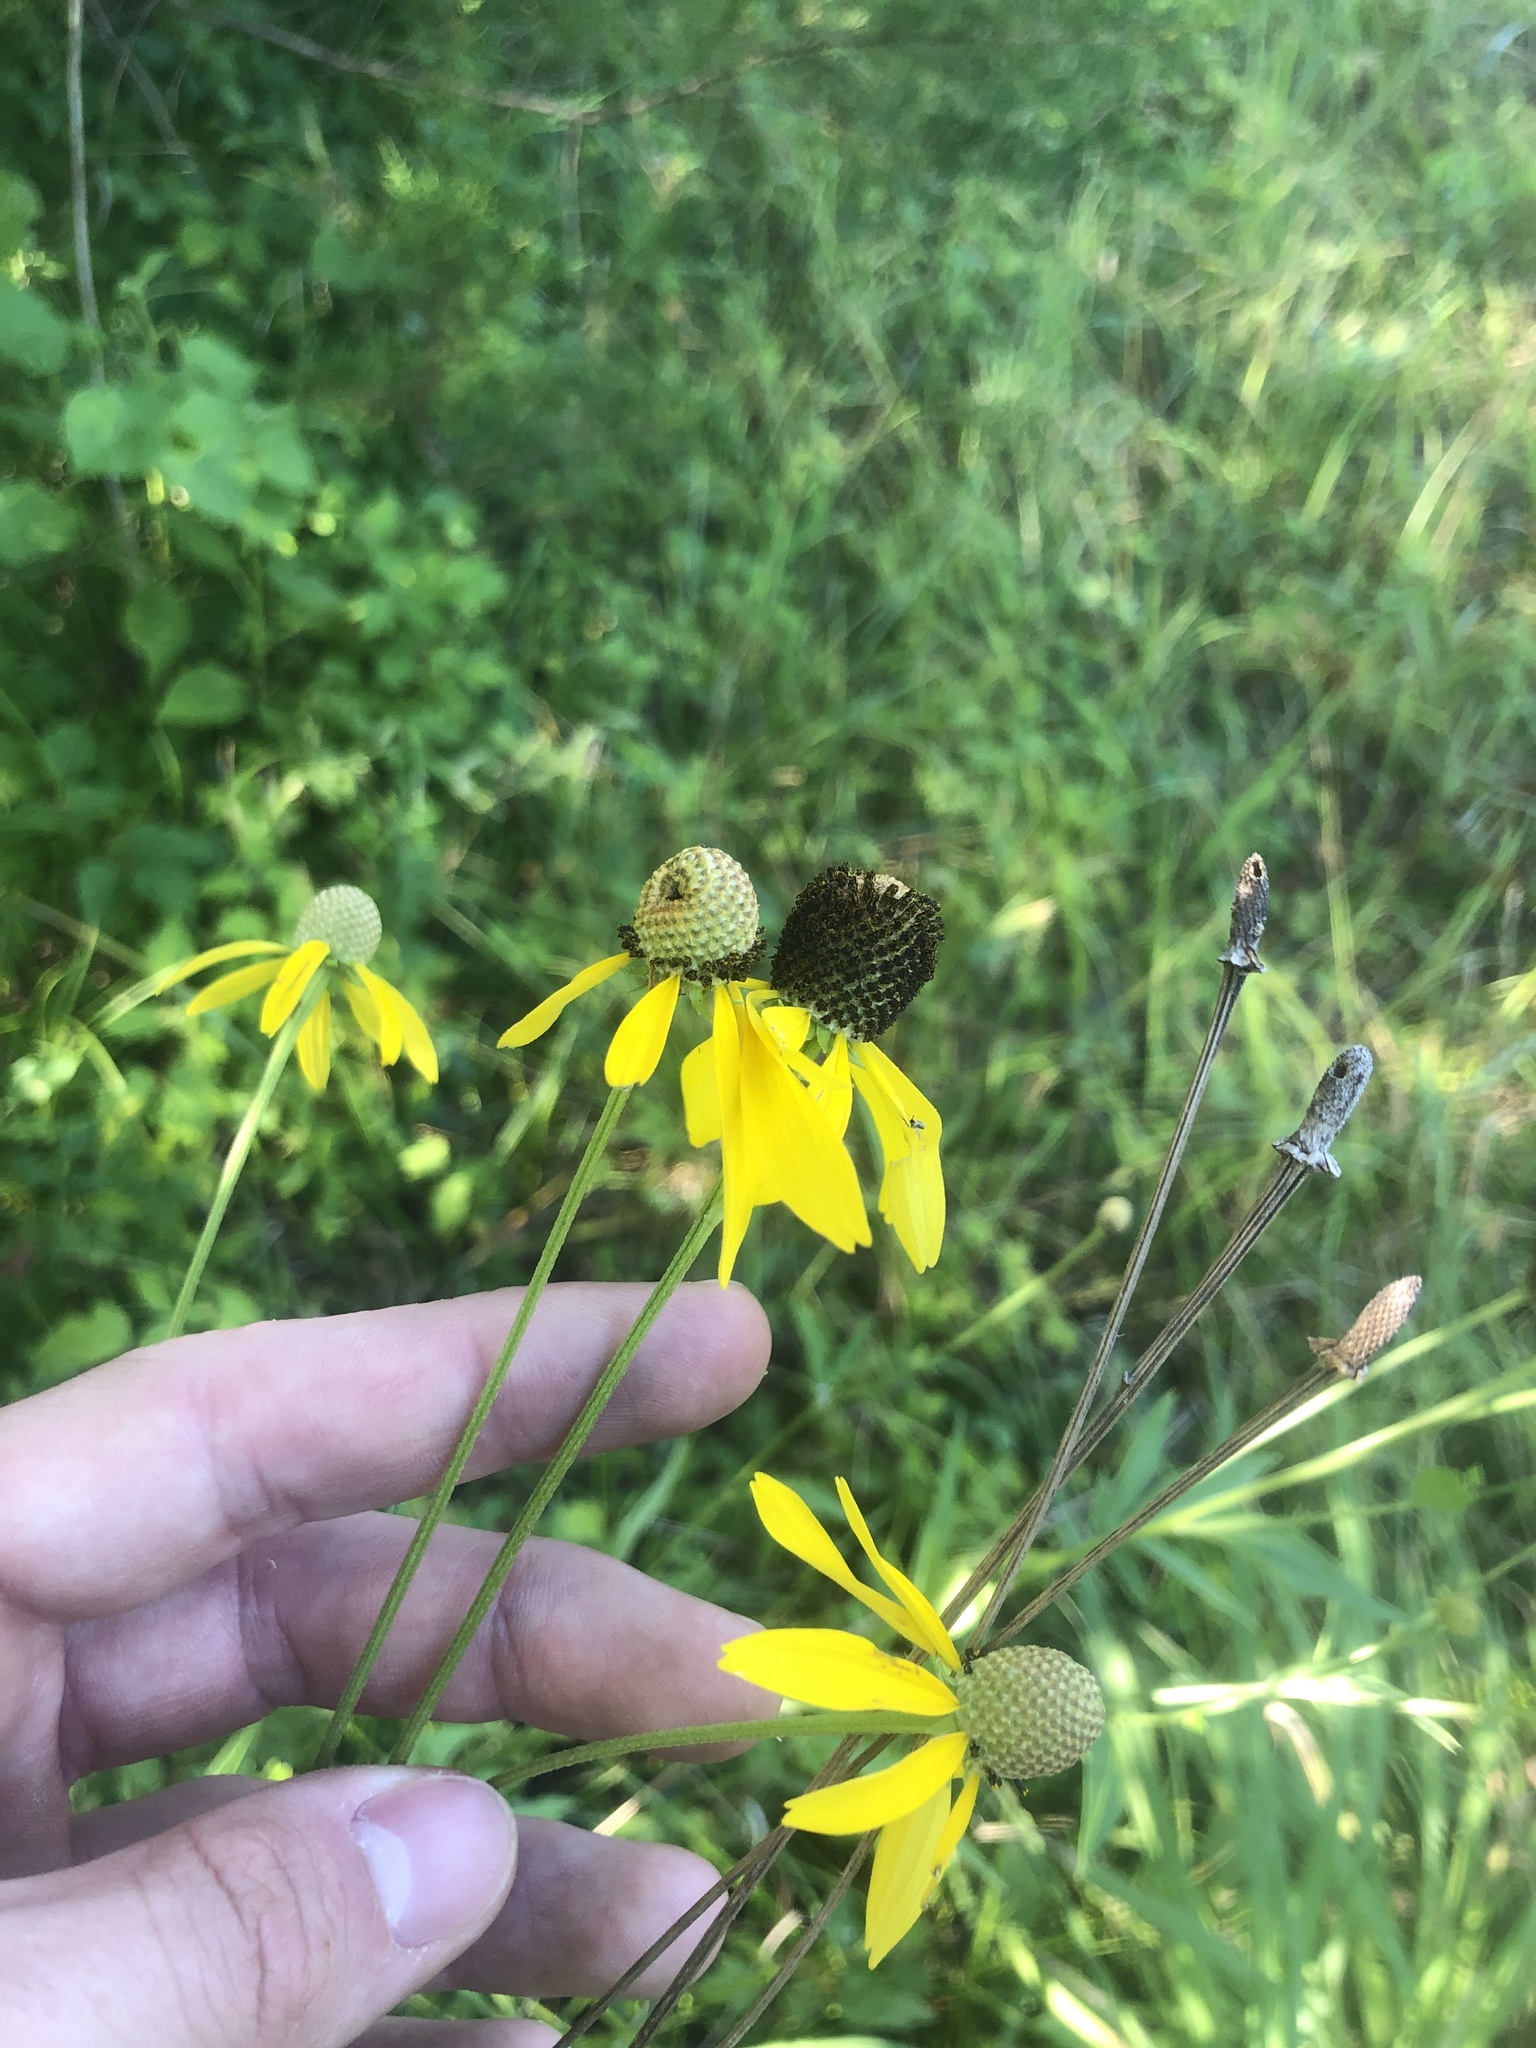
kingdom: Plantae
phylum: Tracheophyta
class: Magnoliopsida
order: Asterales
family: Asteraceae
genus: Ratibida
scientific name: Ratibida pinnata
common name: Drooping prairie-coneflower
